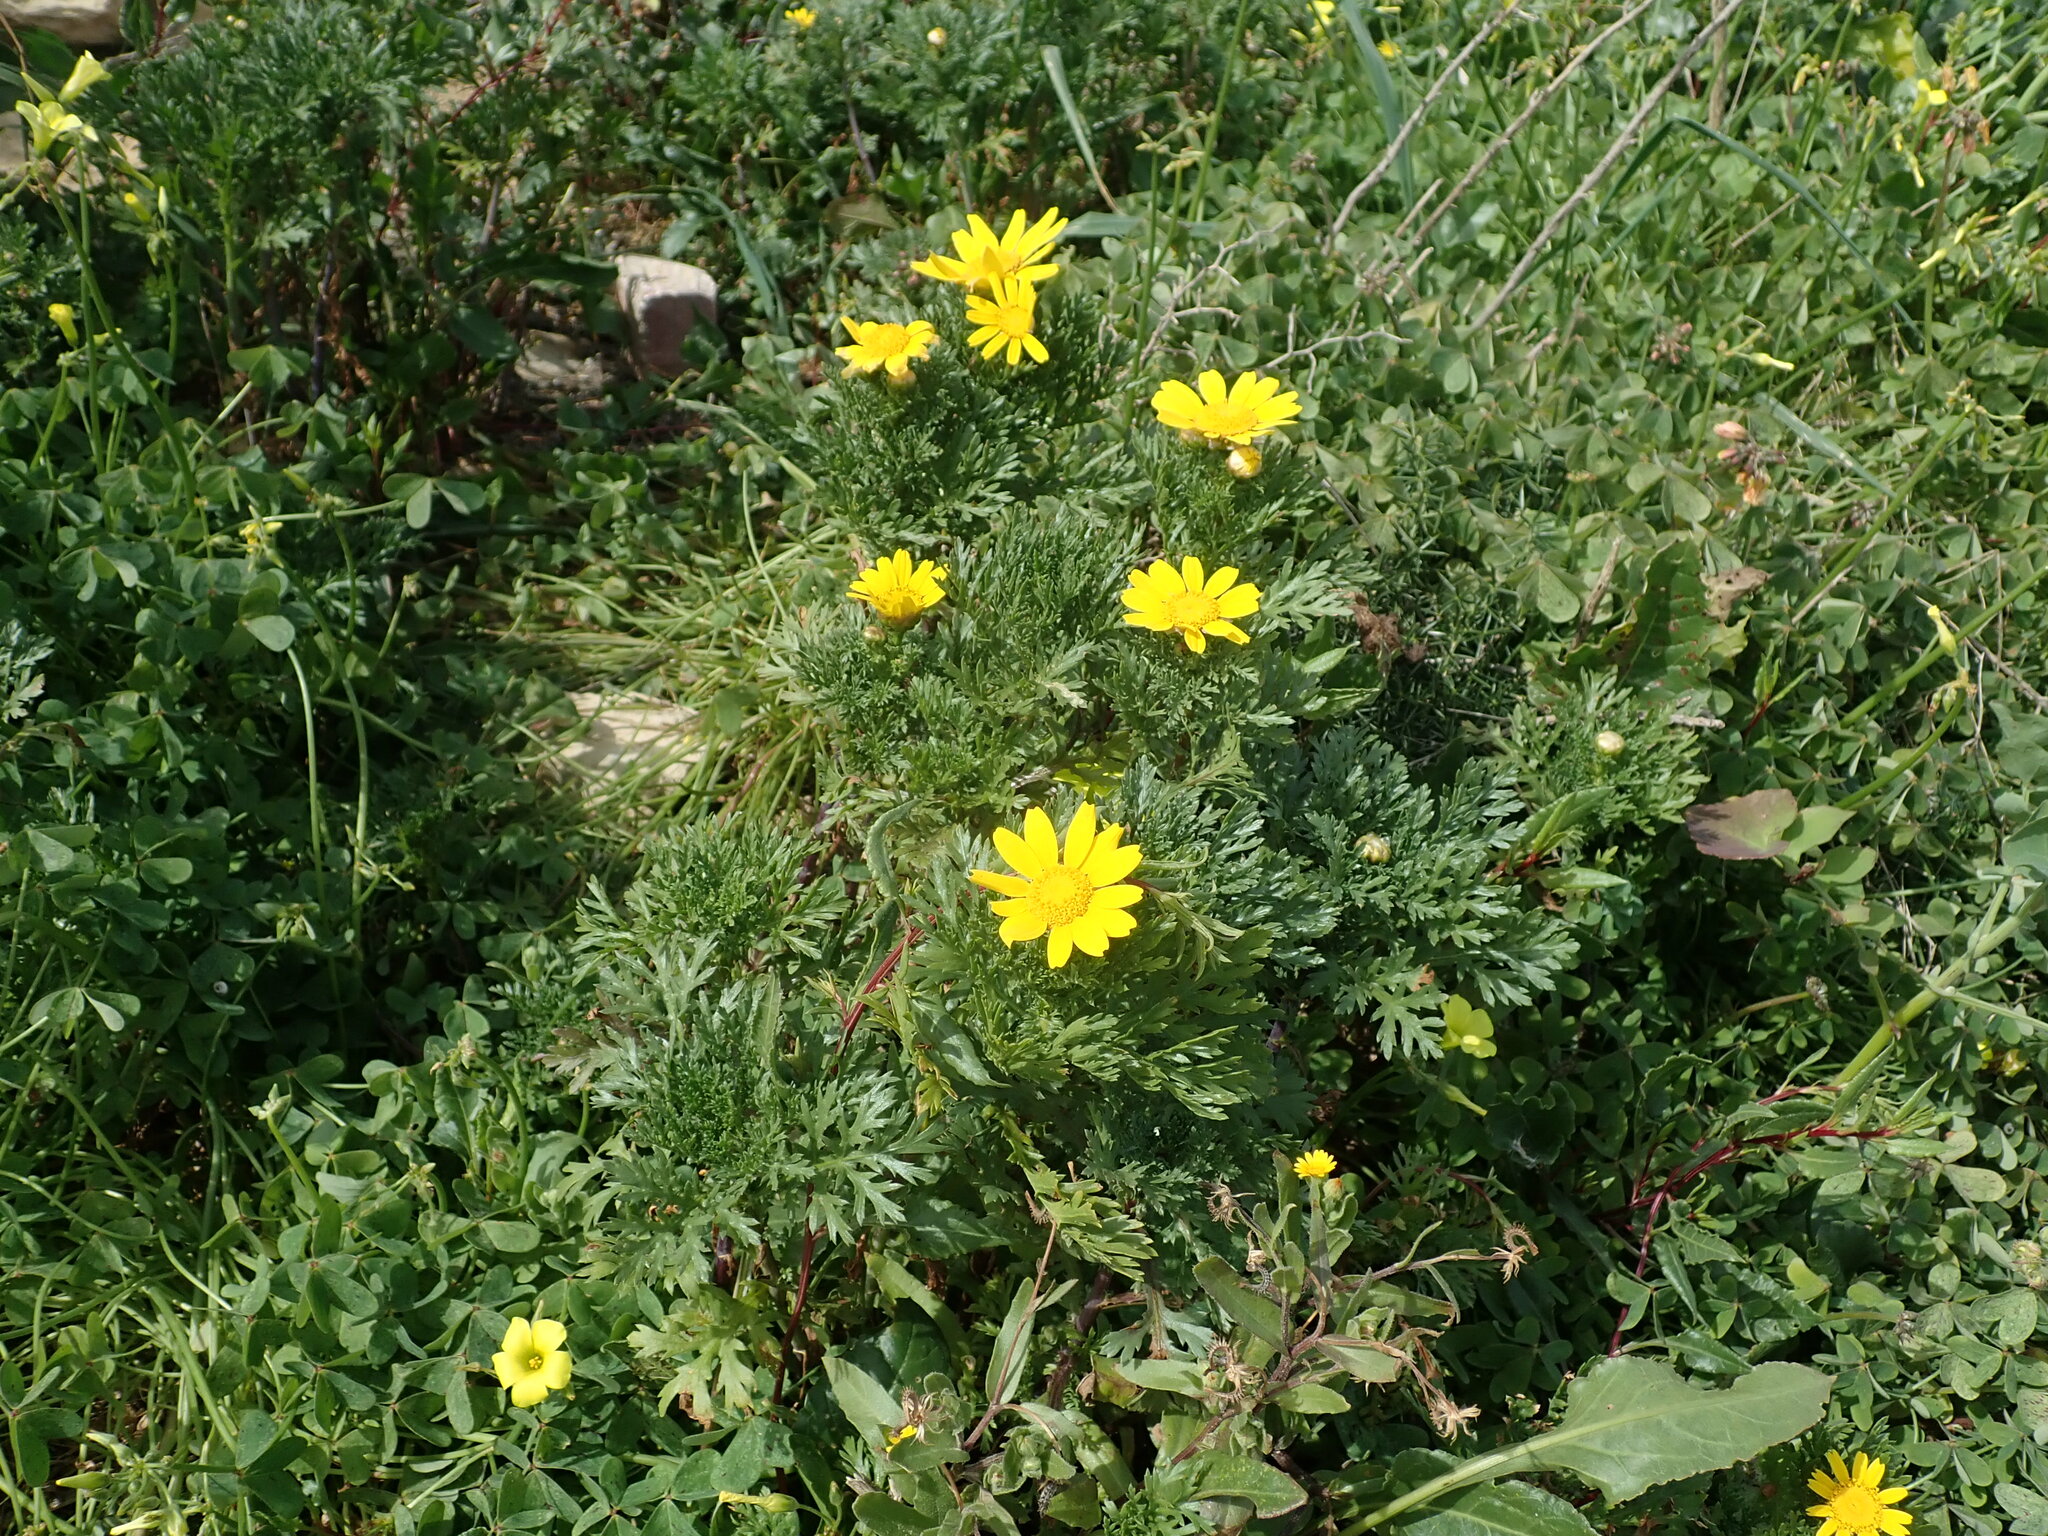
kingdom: Plantae
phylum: Tracheophyta
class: Magnoliopsida
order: Asterales
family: Asteraceae
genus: Glebionis
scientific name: Glebionis coronaria
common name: Crowndaisy
